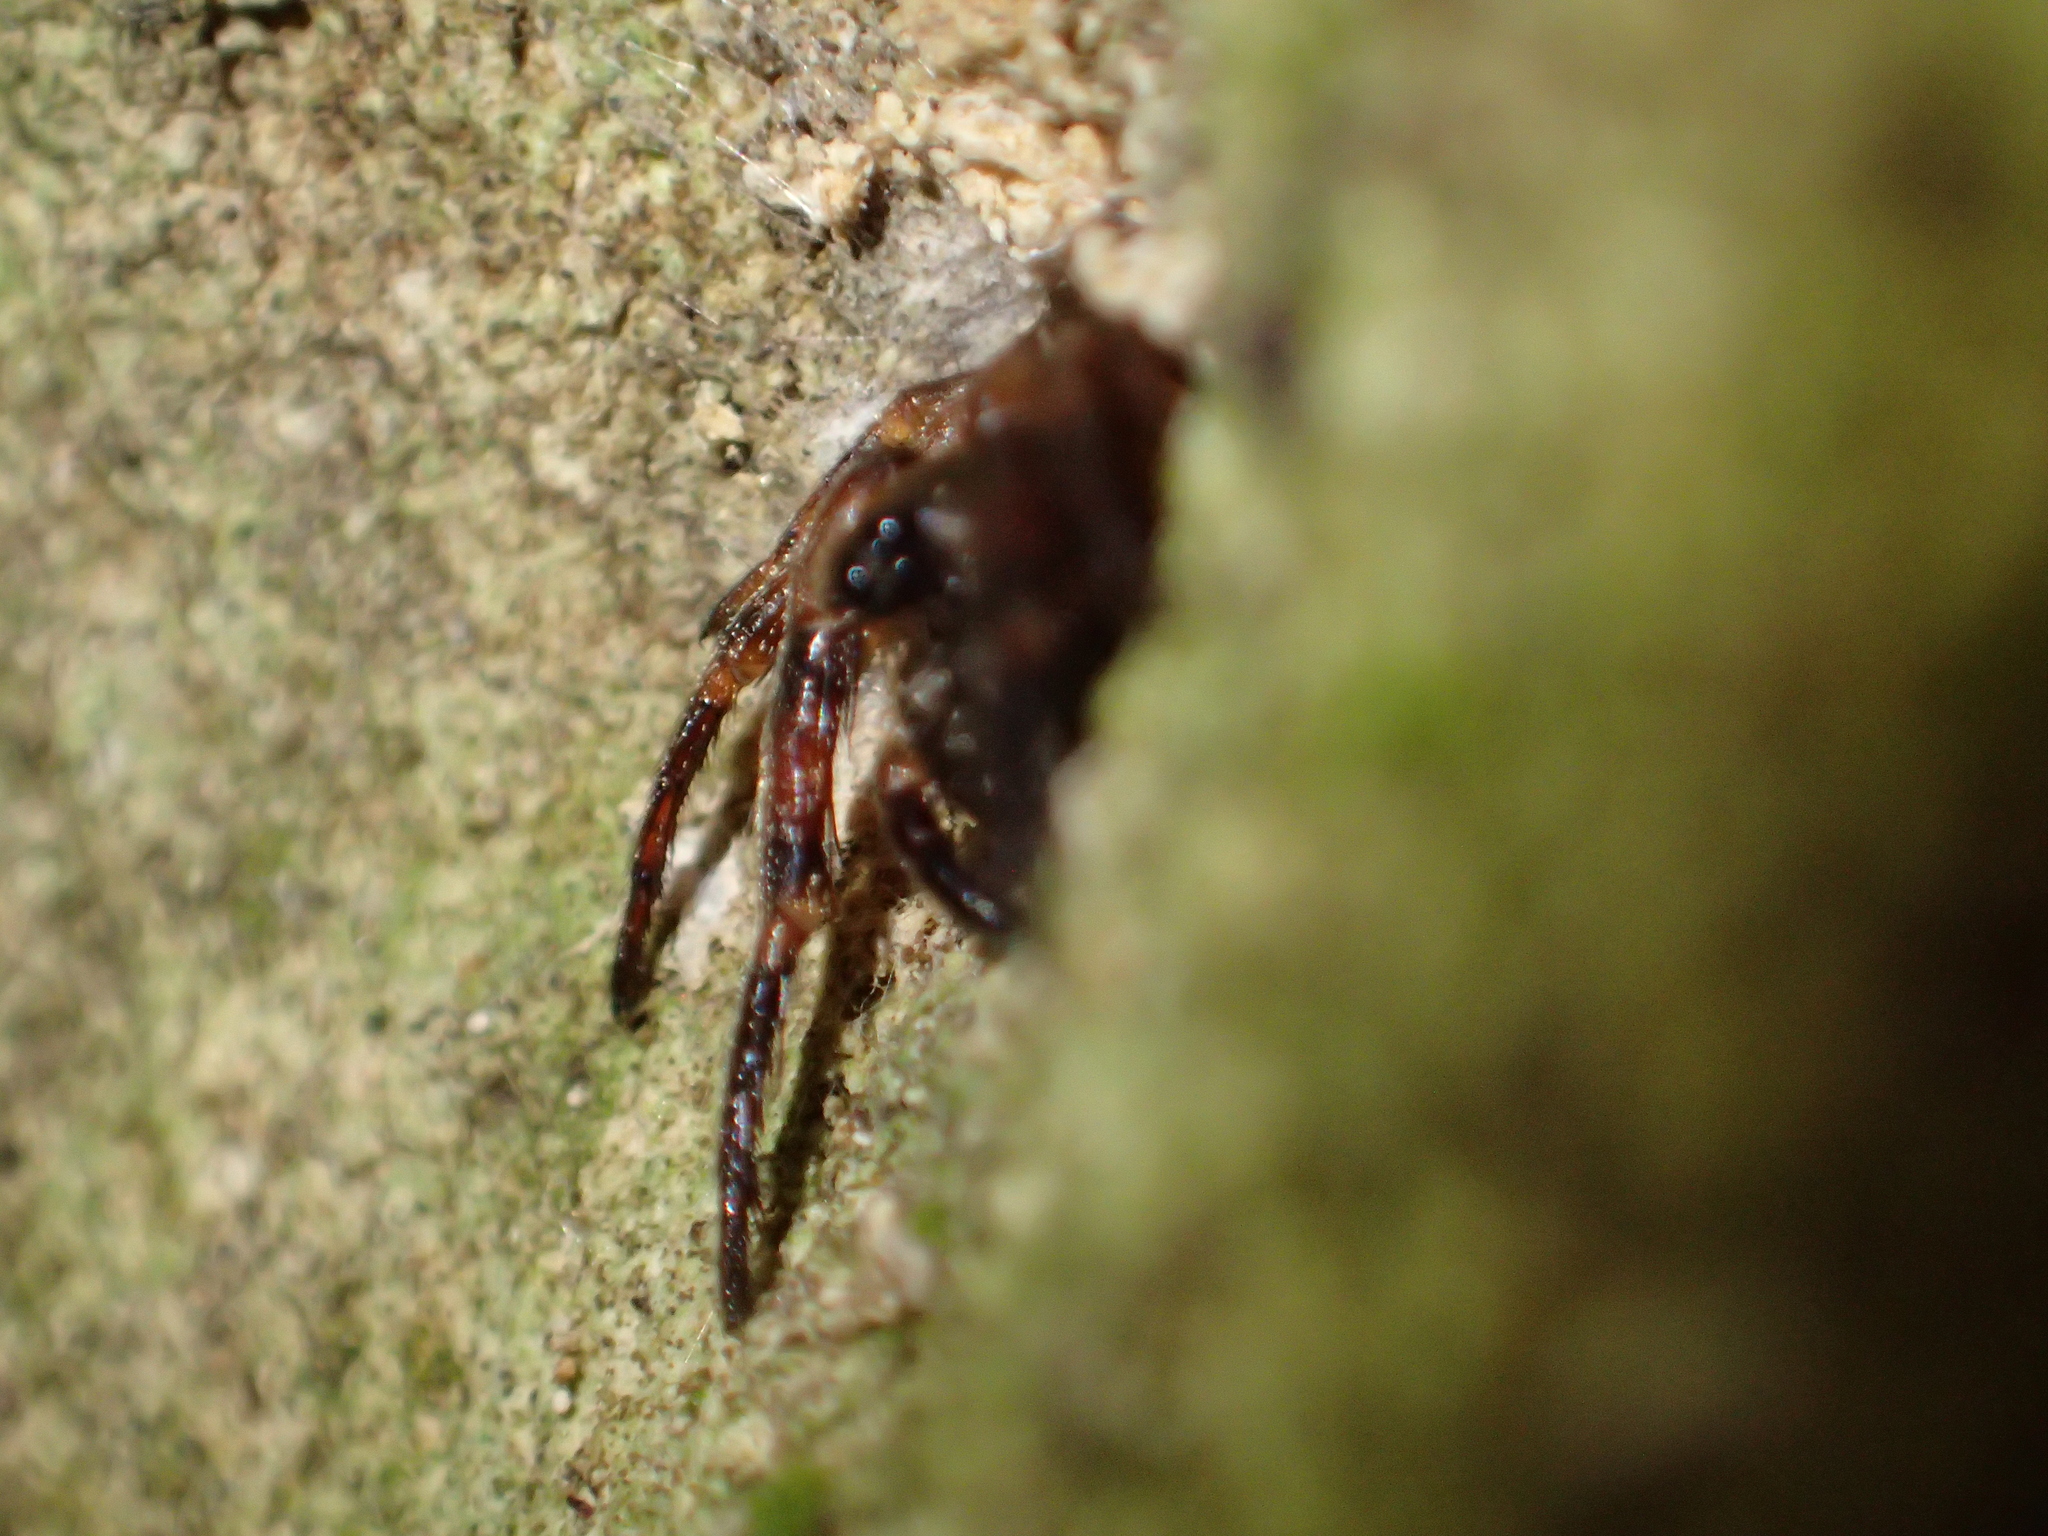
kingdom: Animalia
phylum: Arthropoda
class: Arachnida
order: Araneae
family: Cycloctenidae
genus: Plectophanes
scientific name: Plectophanes
